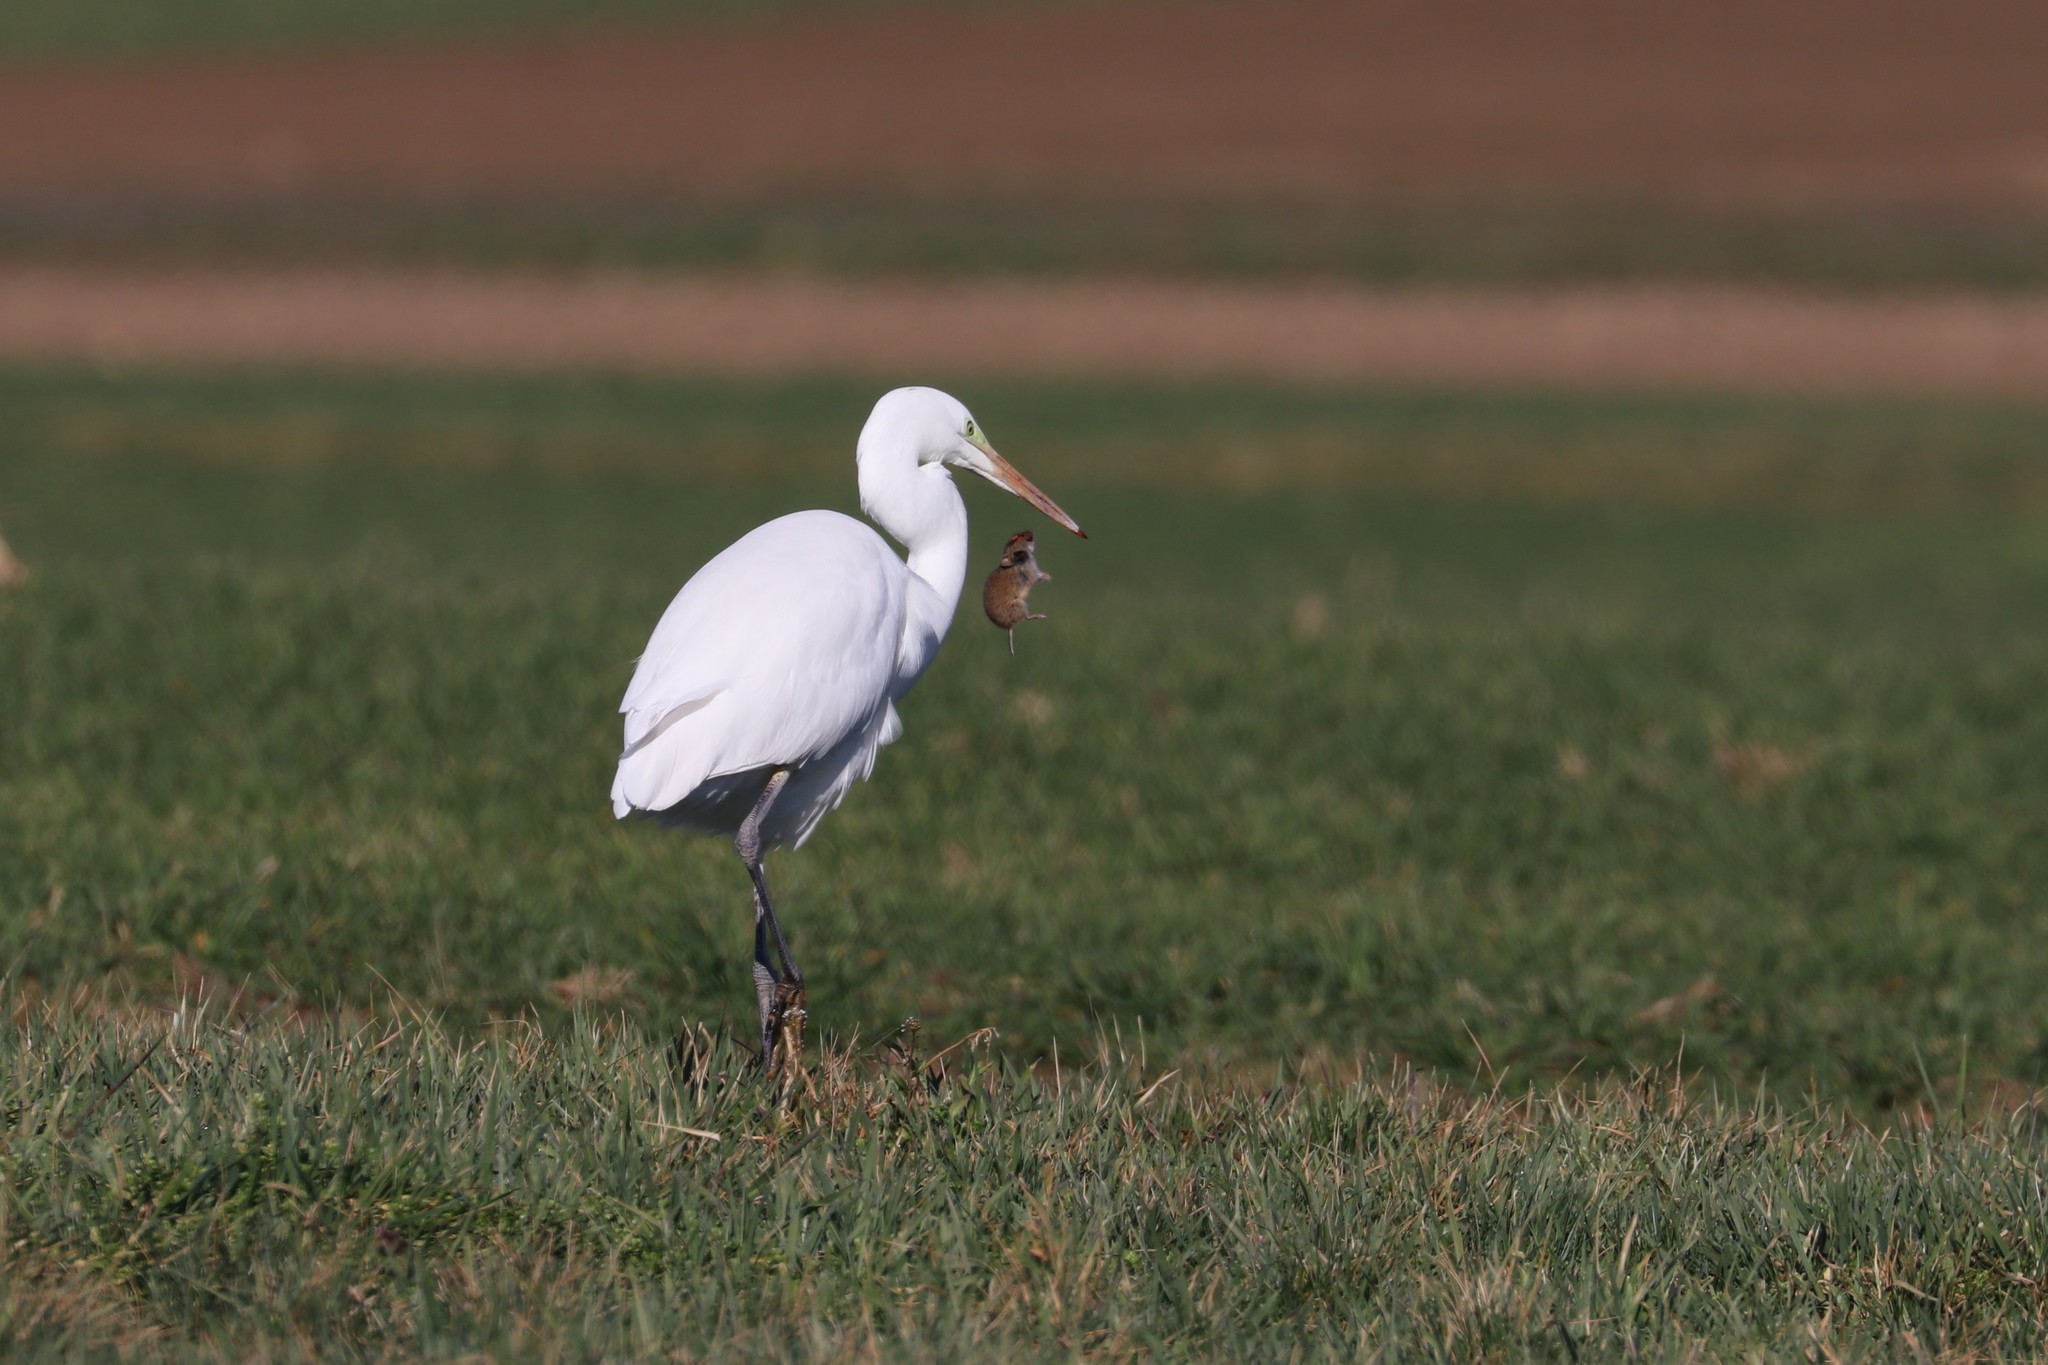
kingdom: Animalia
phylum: Chordata
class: Aves
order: Pelecaniformes
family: Ardeidae
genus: Ardea
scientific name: Ardea alba
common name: Great egret
